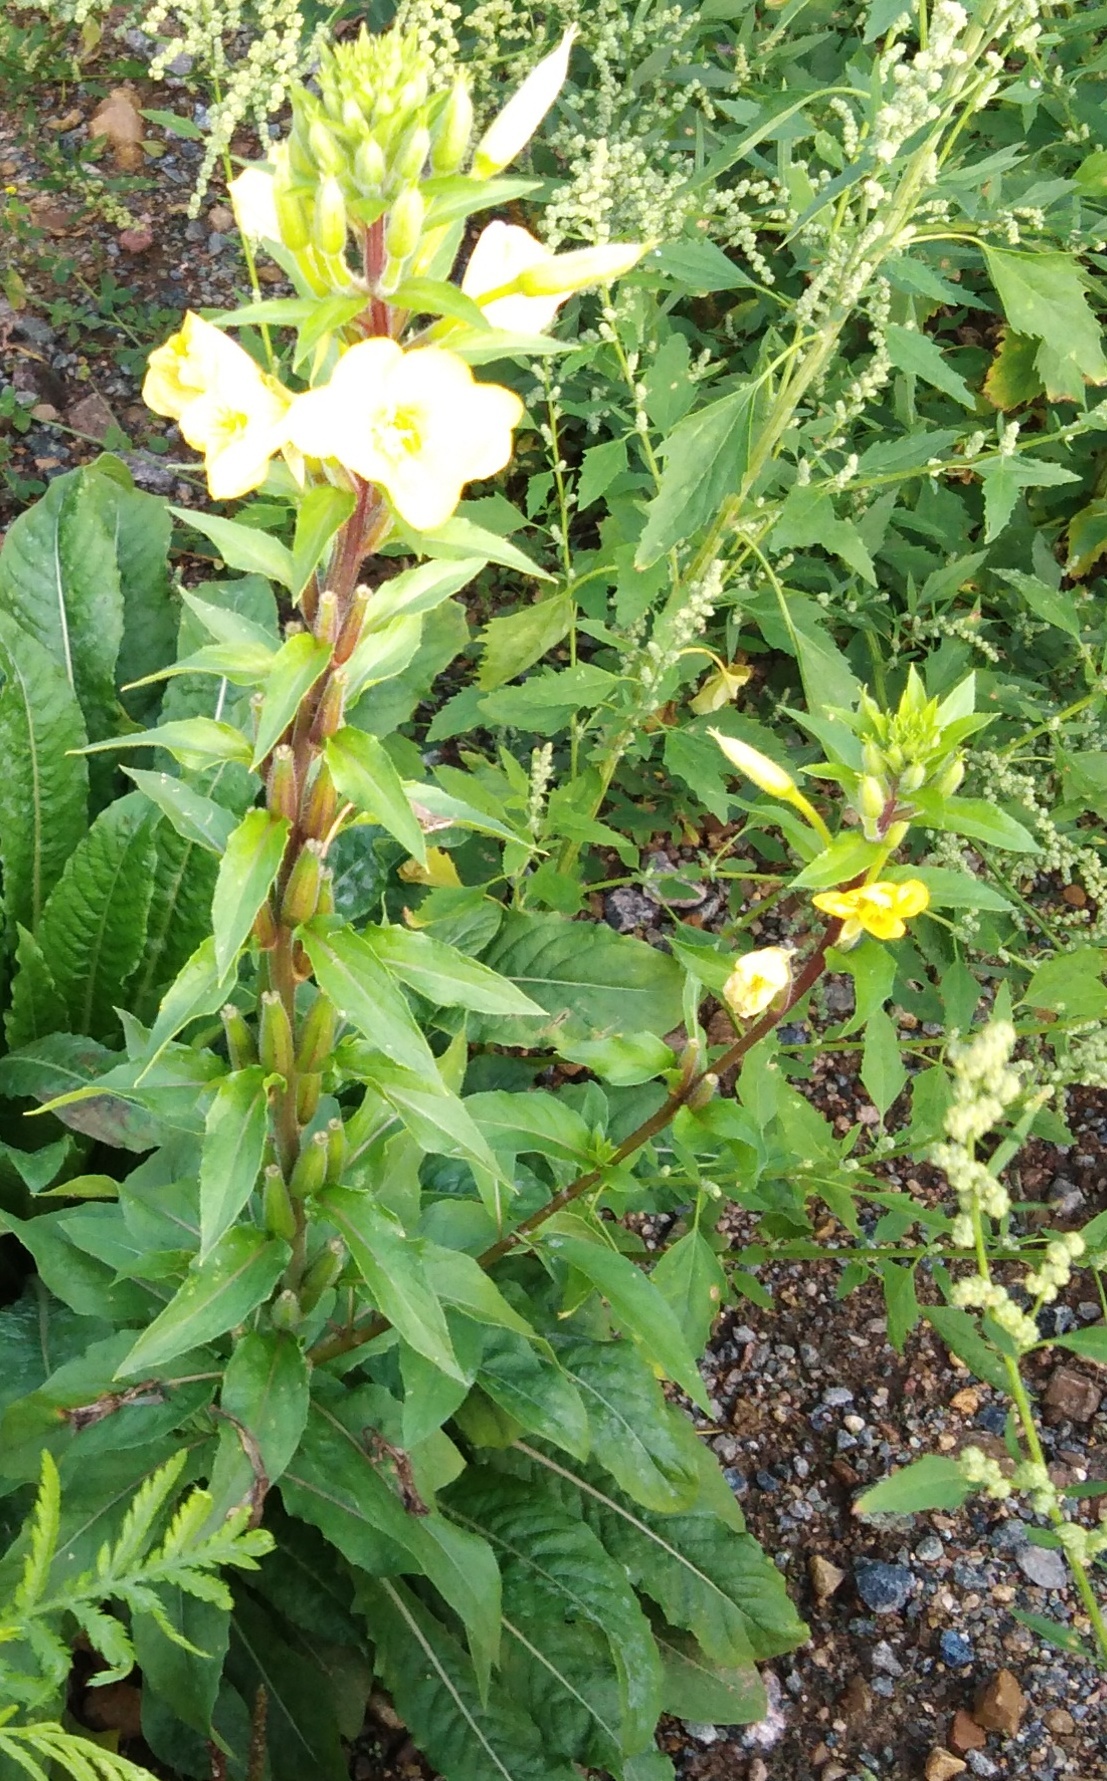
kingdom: Plantae
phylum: Tracheophyta
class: Magnoliopsida
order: Myrtales
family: Onagraceae
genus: Oenothera
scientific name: Oenothera rubricaulis
